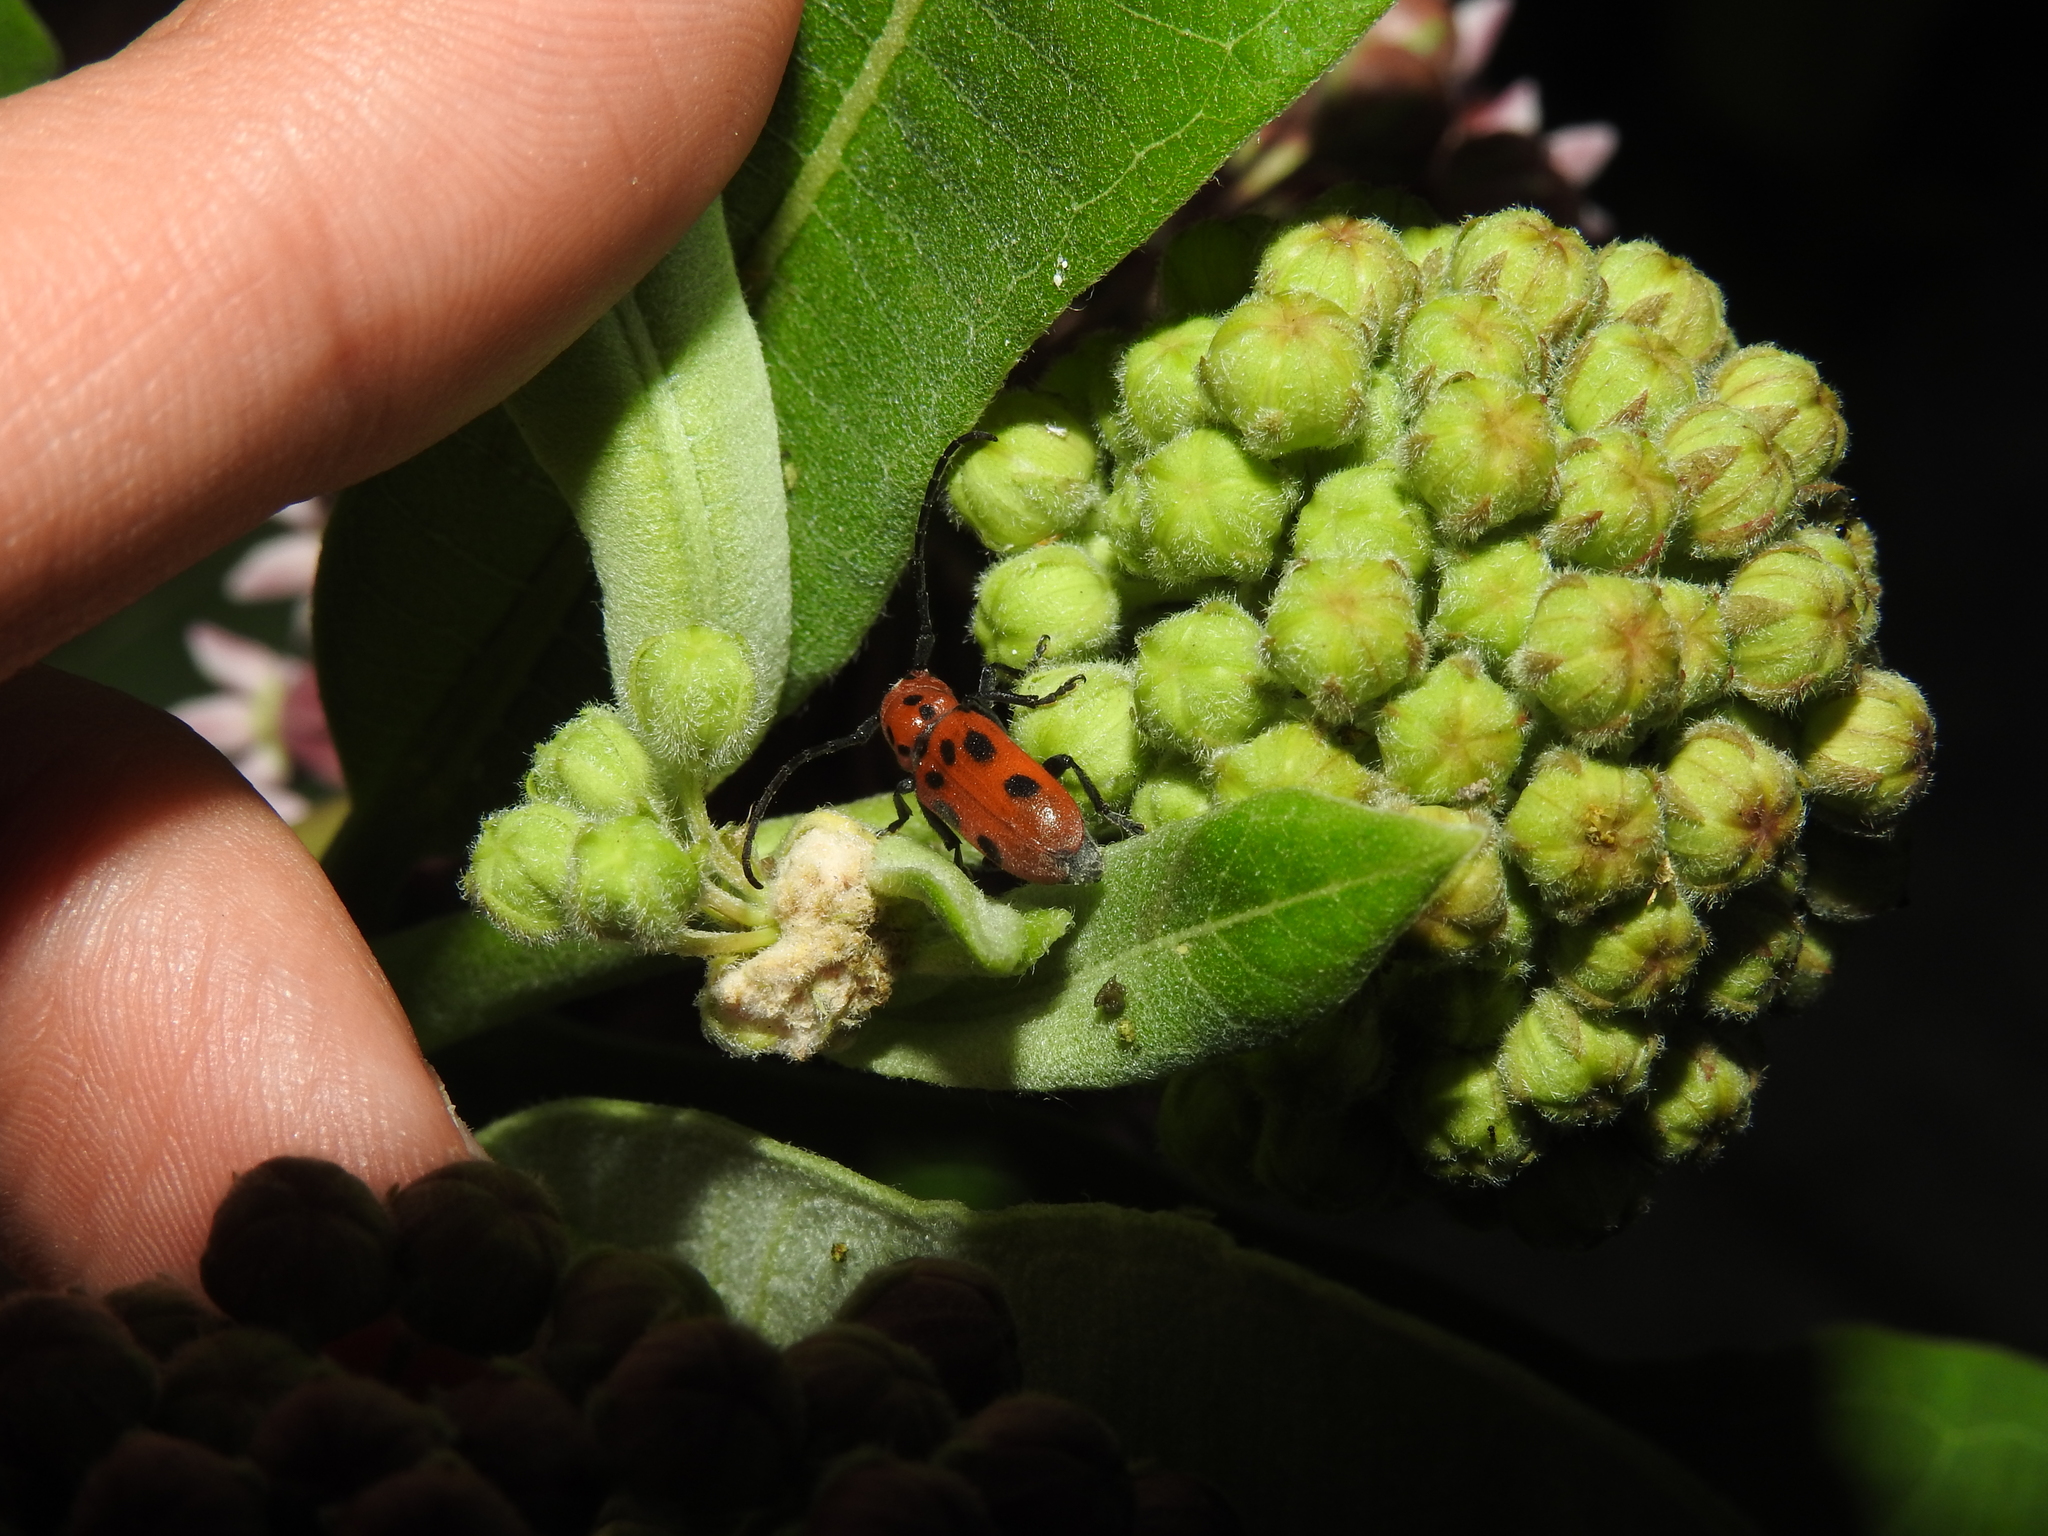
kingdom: Animalia
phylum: Arthropoda
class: Insecta
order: Coleoptera
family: Cerambycidae
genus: Tetraopes
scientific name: Tetraopes tetrophthalmus
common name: Red milkweed beetle
